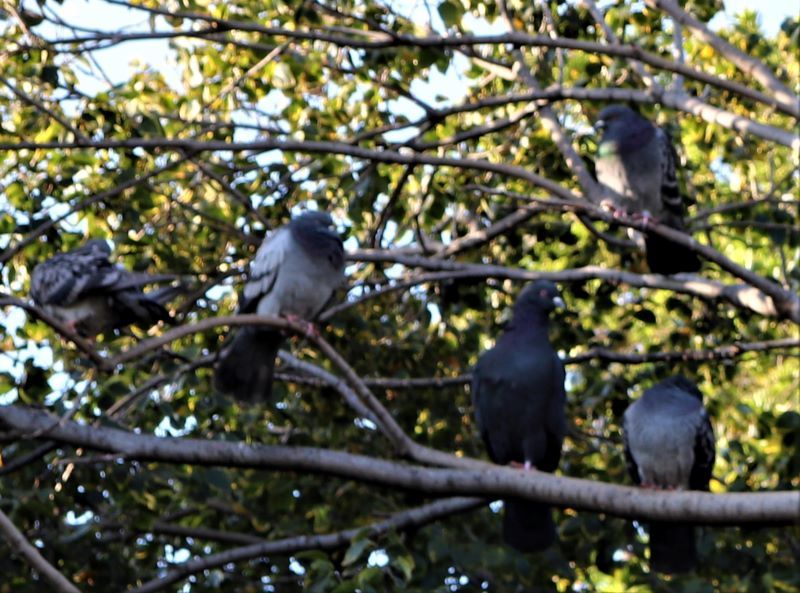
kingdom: Animalia
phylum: Chordata
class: Aves
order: Columbiformes
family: Columbidae
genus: Columba
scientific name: Columba livia
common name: Rock pigeon
